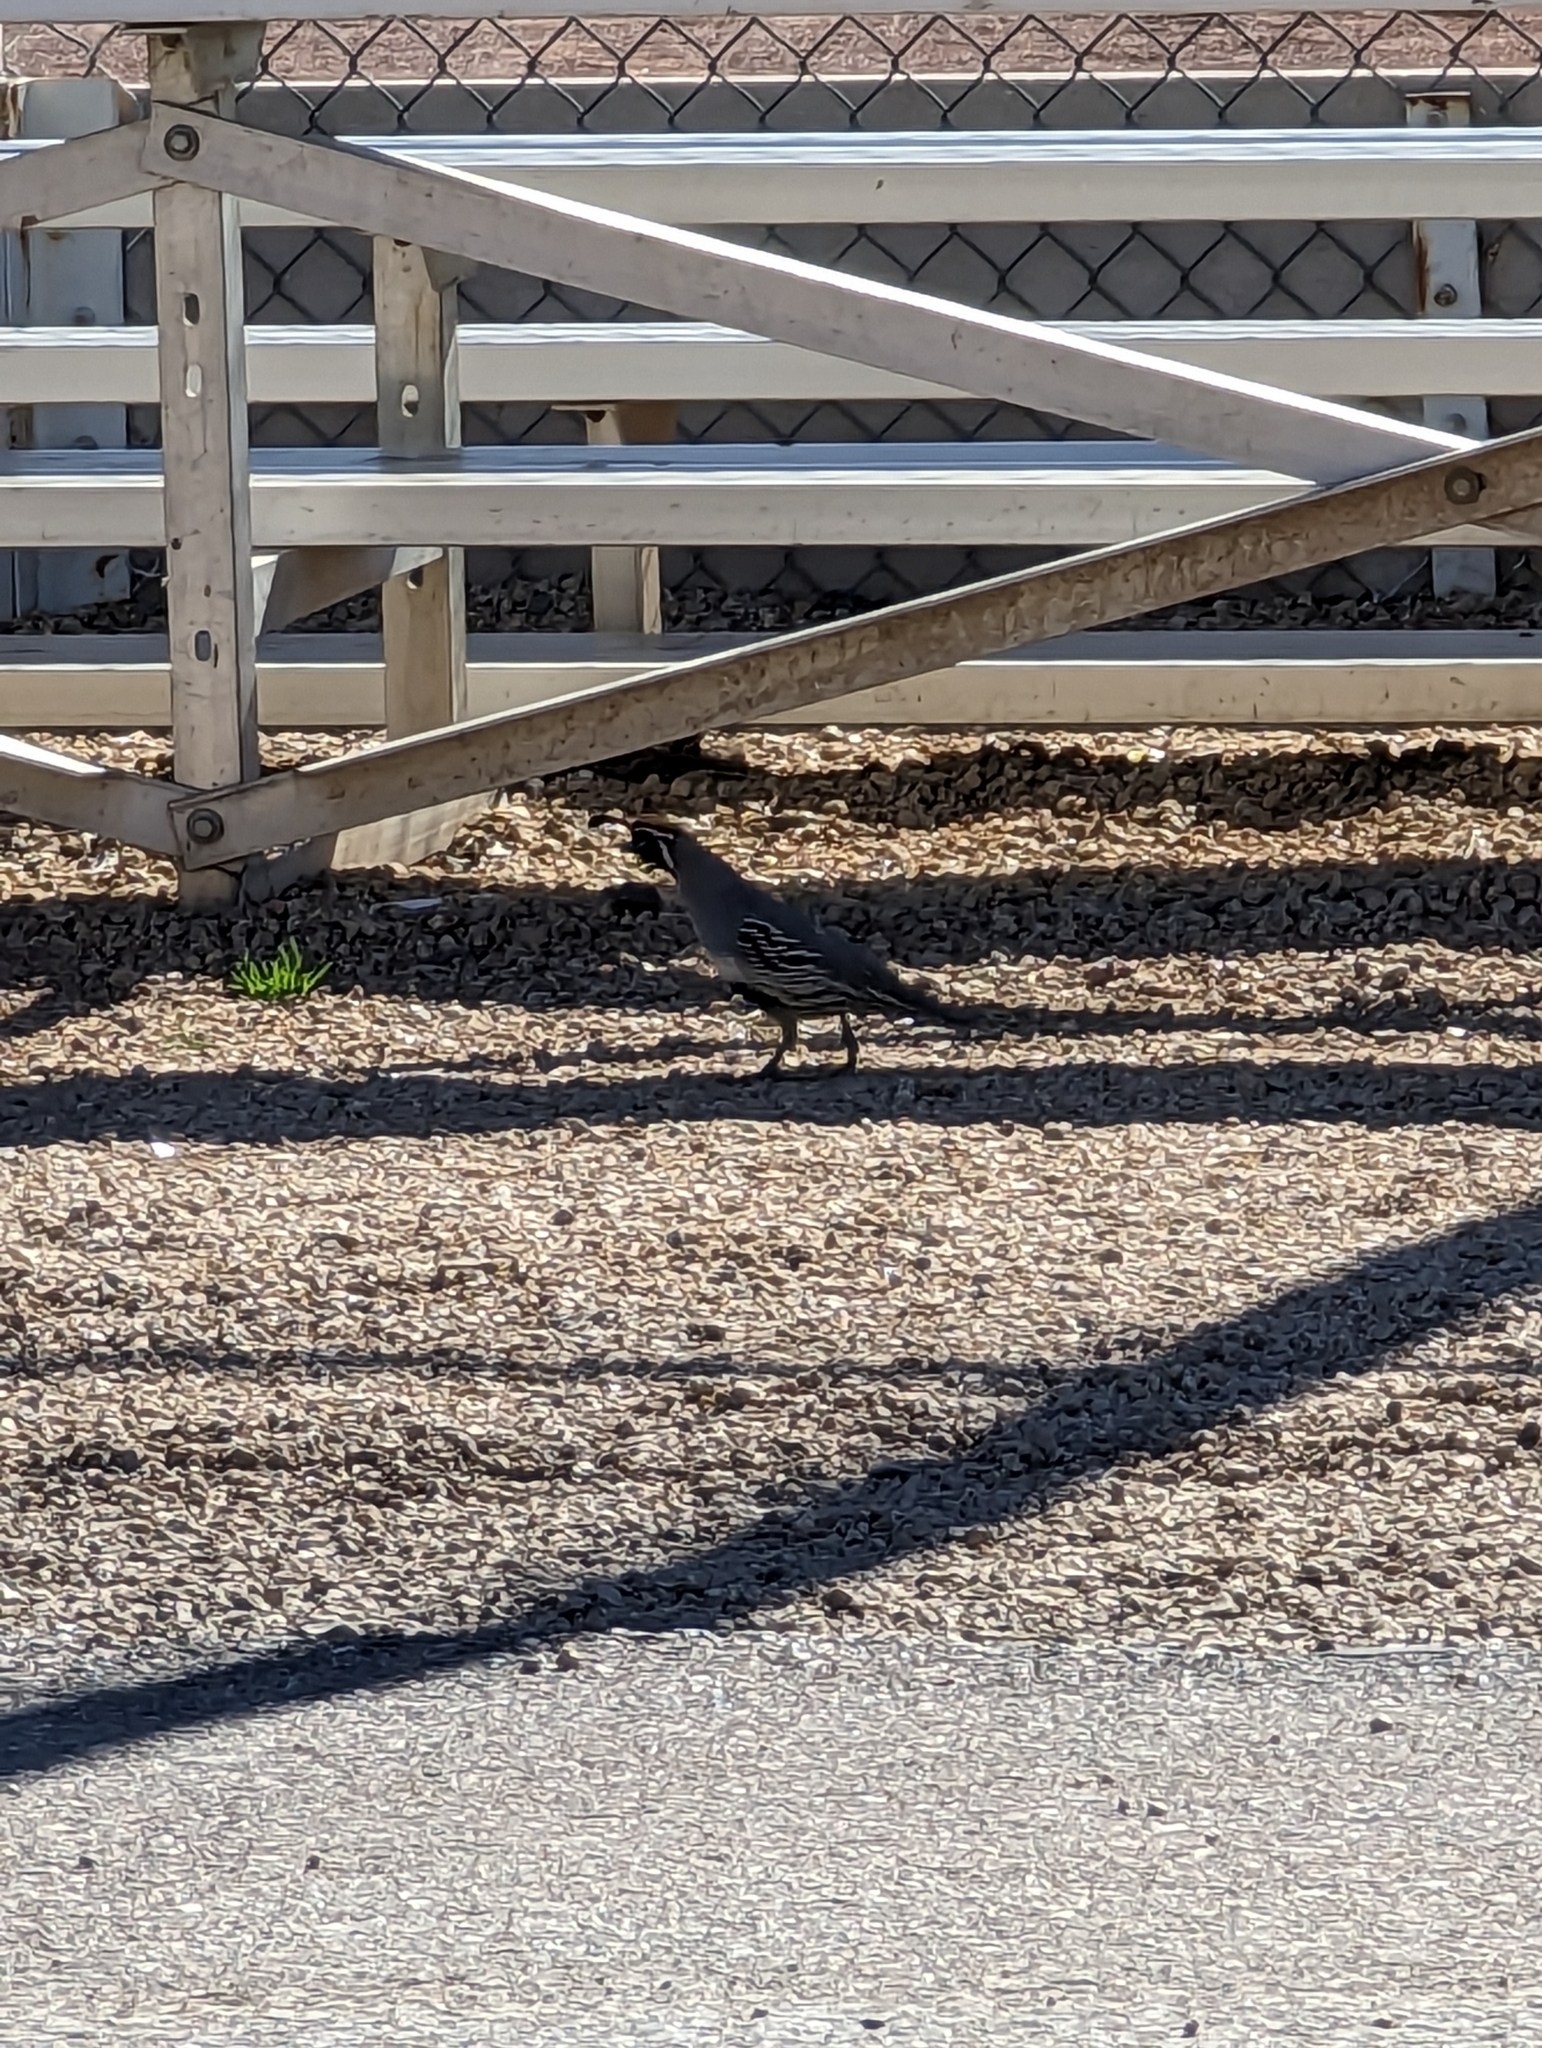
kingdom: Animalia
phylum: Chordata
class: Aves
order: Galliformes
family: Odontophoridae
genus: Callipepla
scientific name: Callipepla gambelii
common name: Gambel's quail
